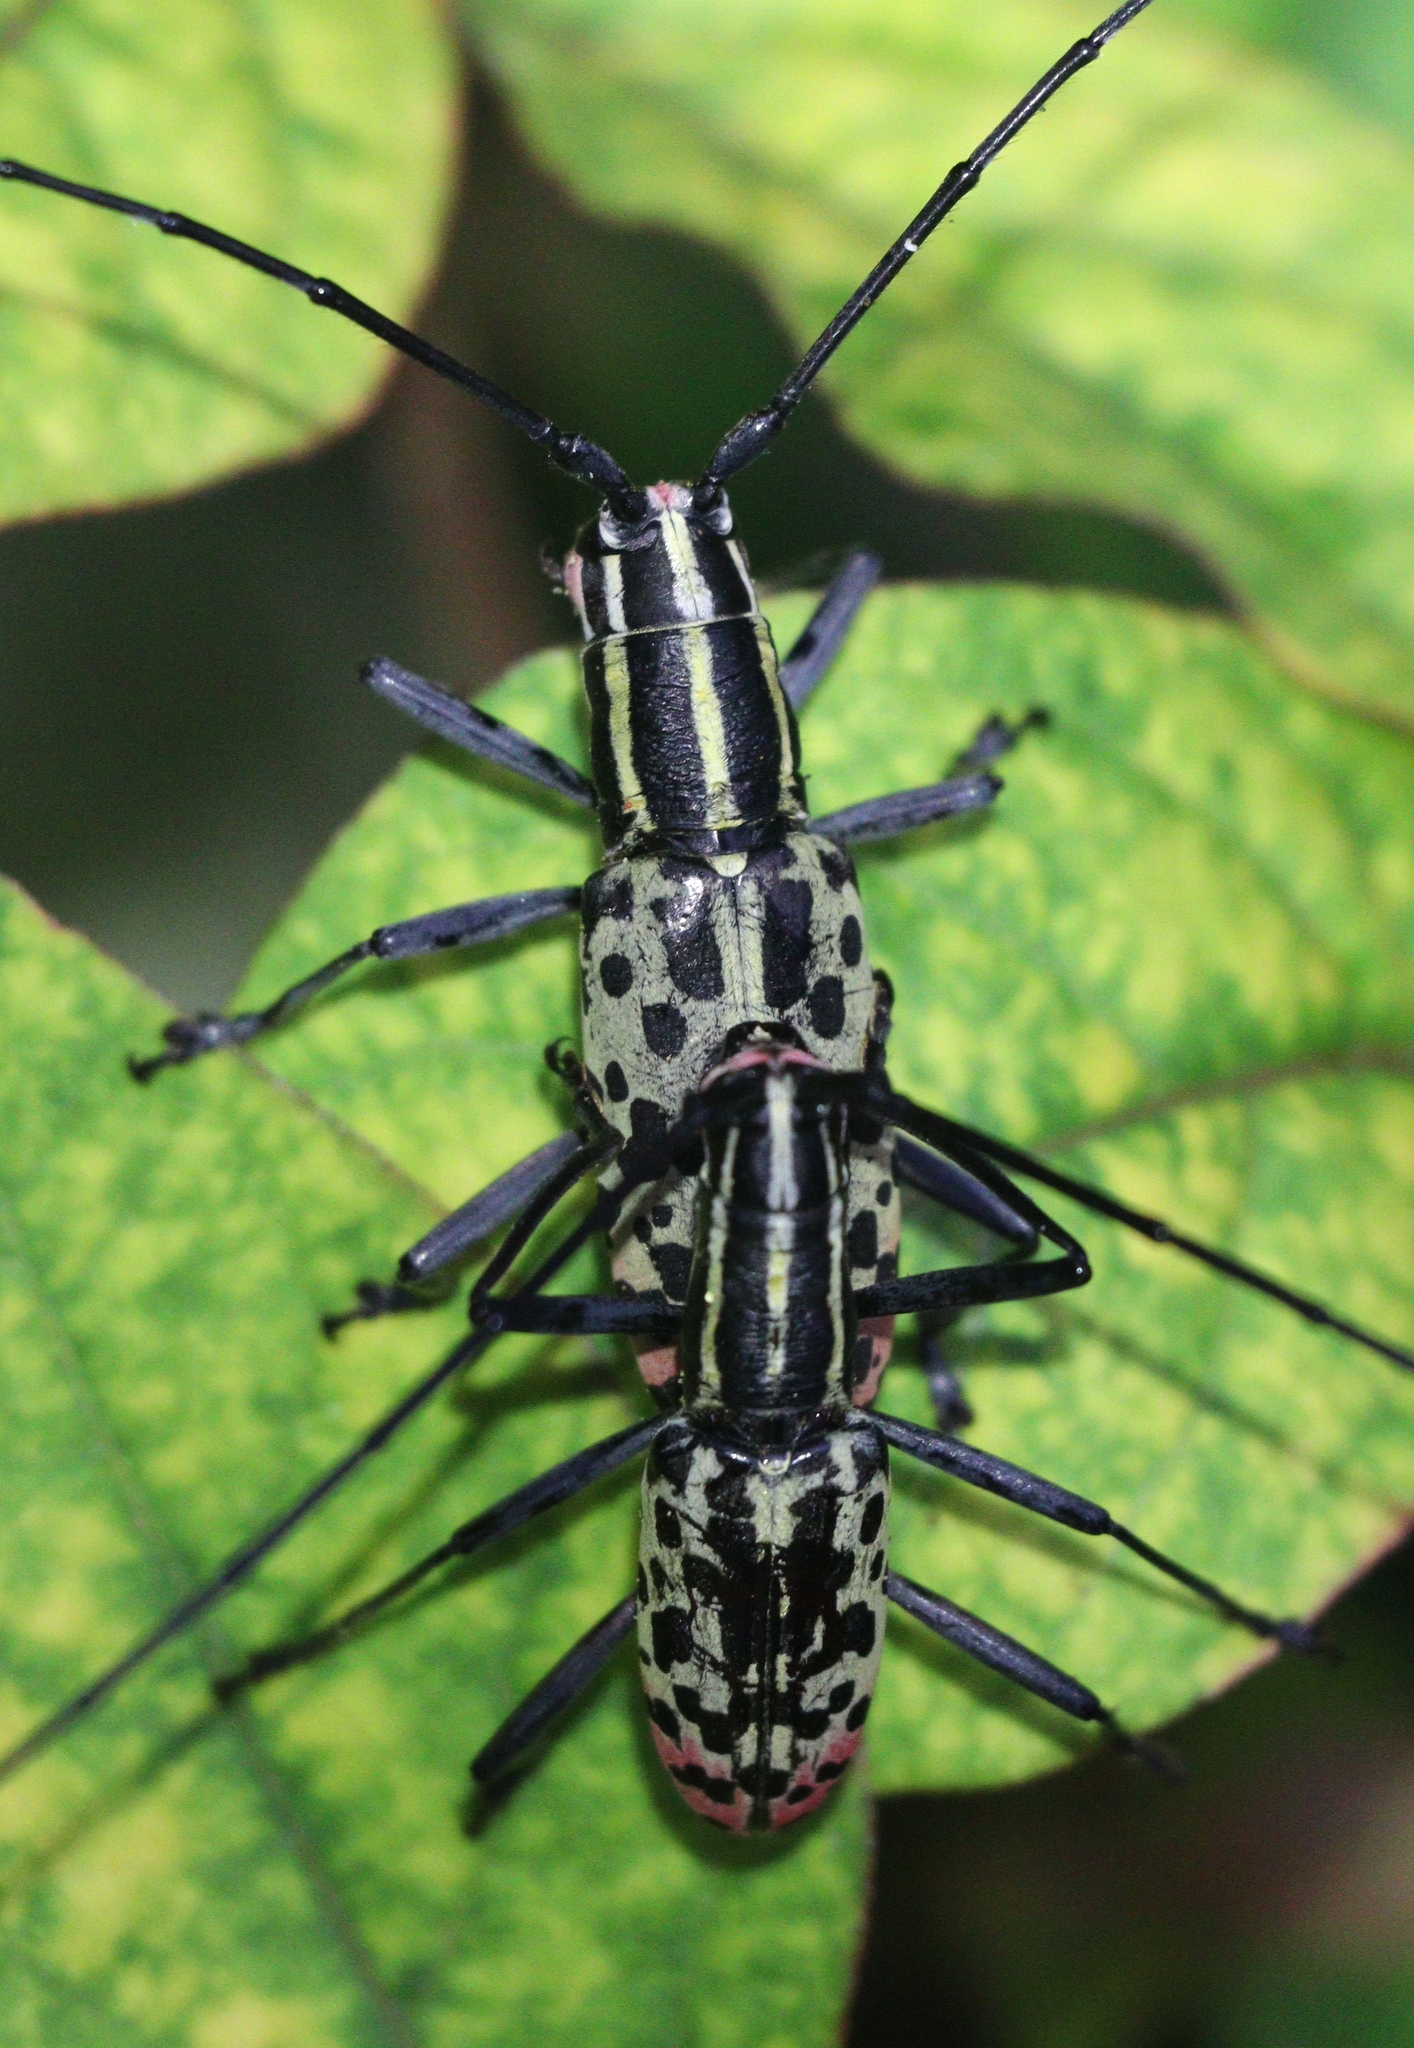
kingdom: Animalia
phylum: Arthropoda
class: Insecta
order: Coleoptera
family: Cerambycidae
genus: Macrochenus
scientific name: Macrochenus guerinii
